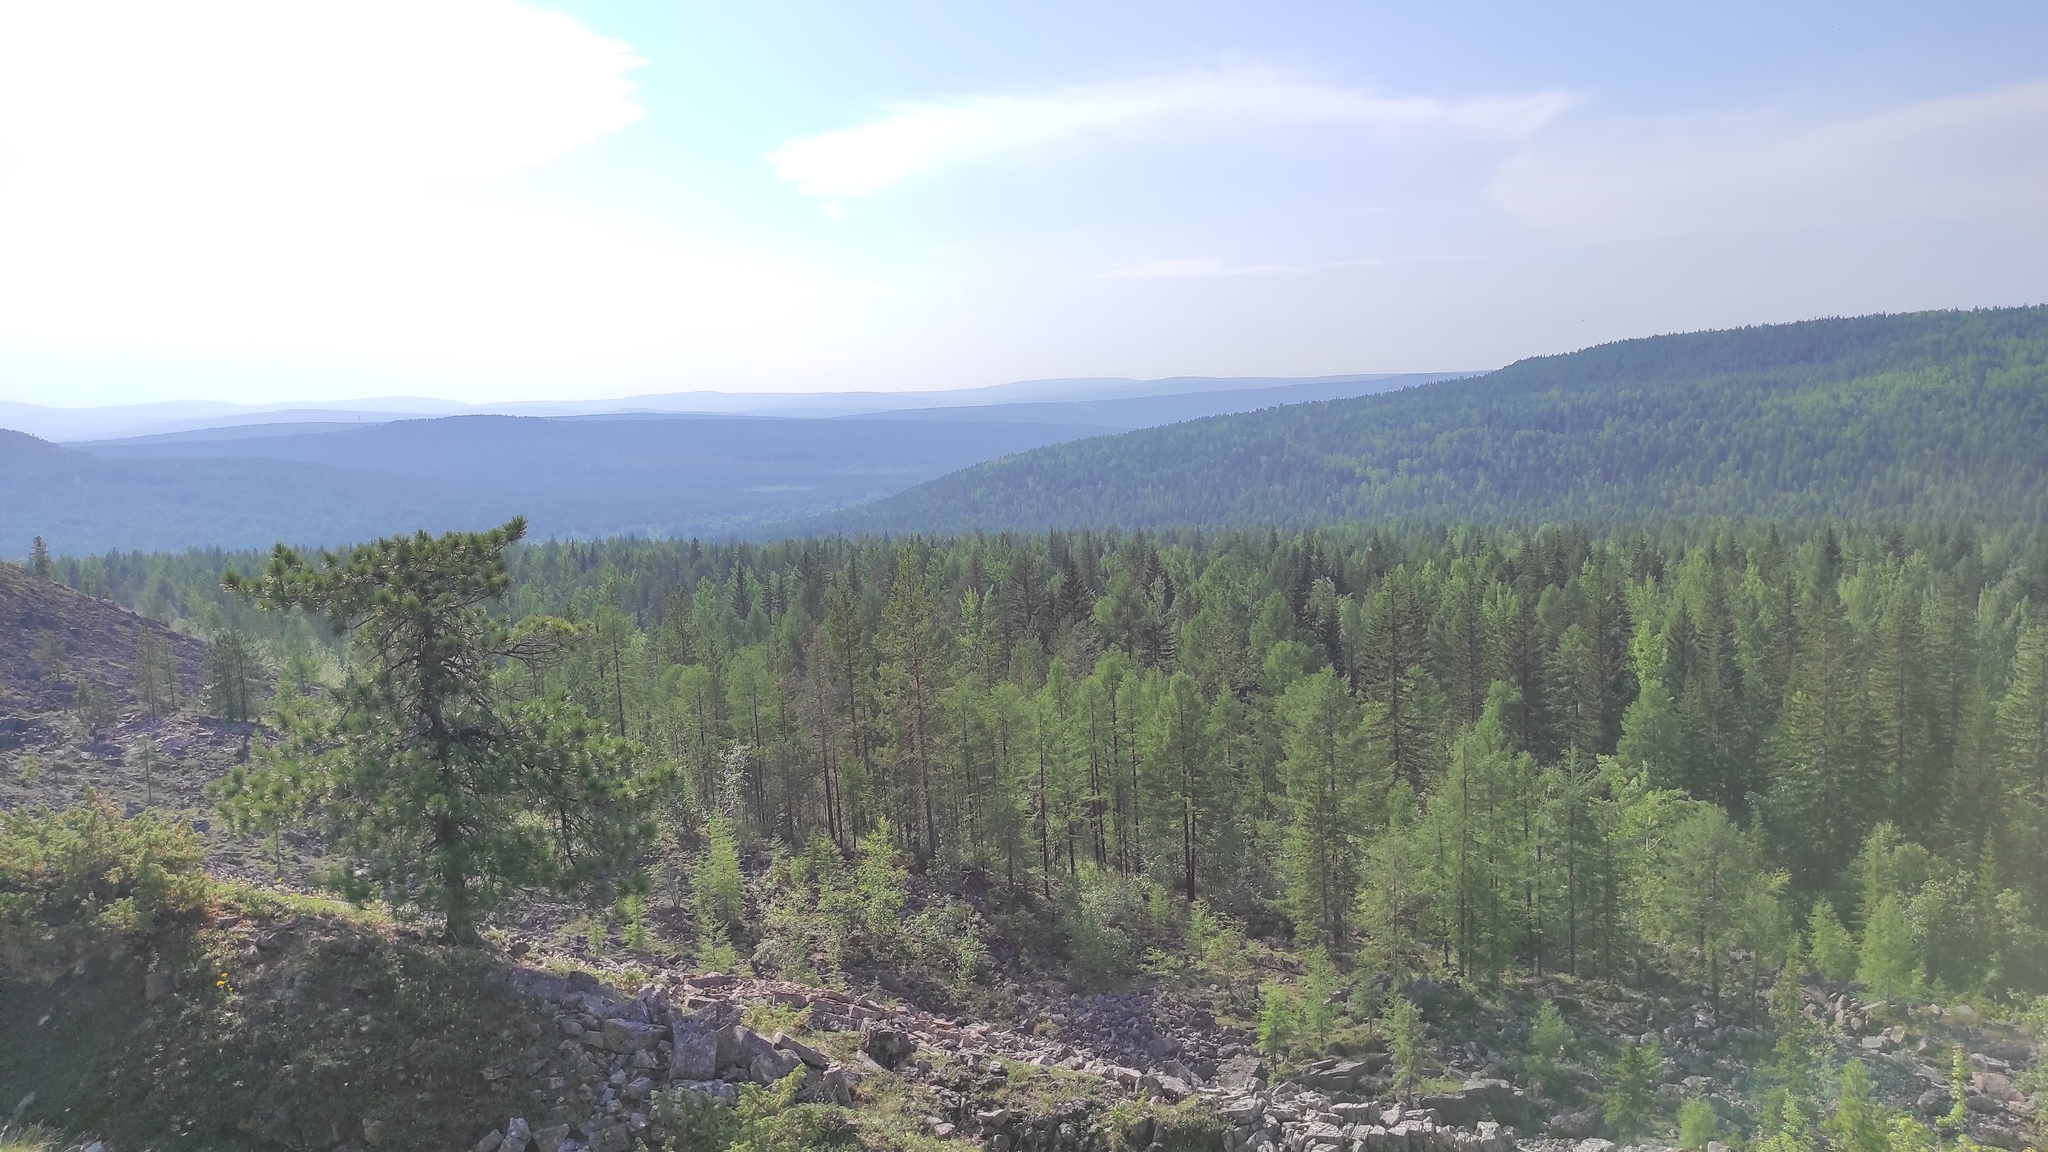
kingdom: Plantae
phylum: Tracheophyta
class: Pinopsida
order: Pinales
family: Pinaceae
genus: Picea
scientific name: Picea obovata
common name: Siberian spruce
